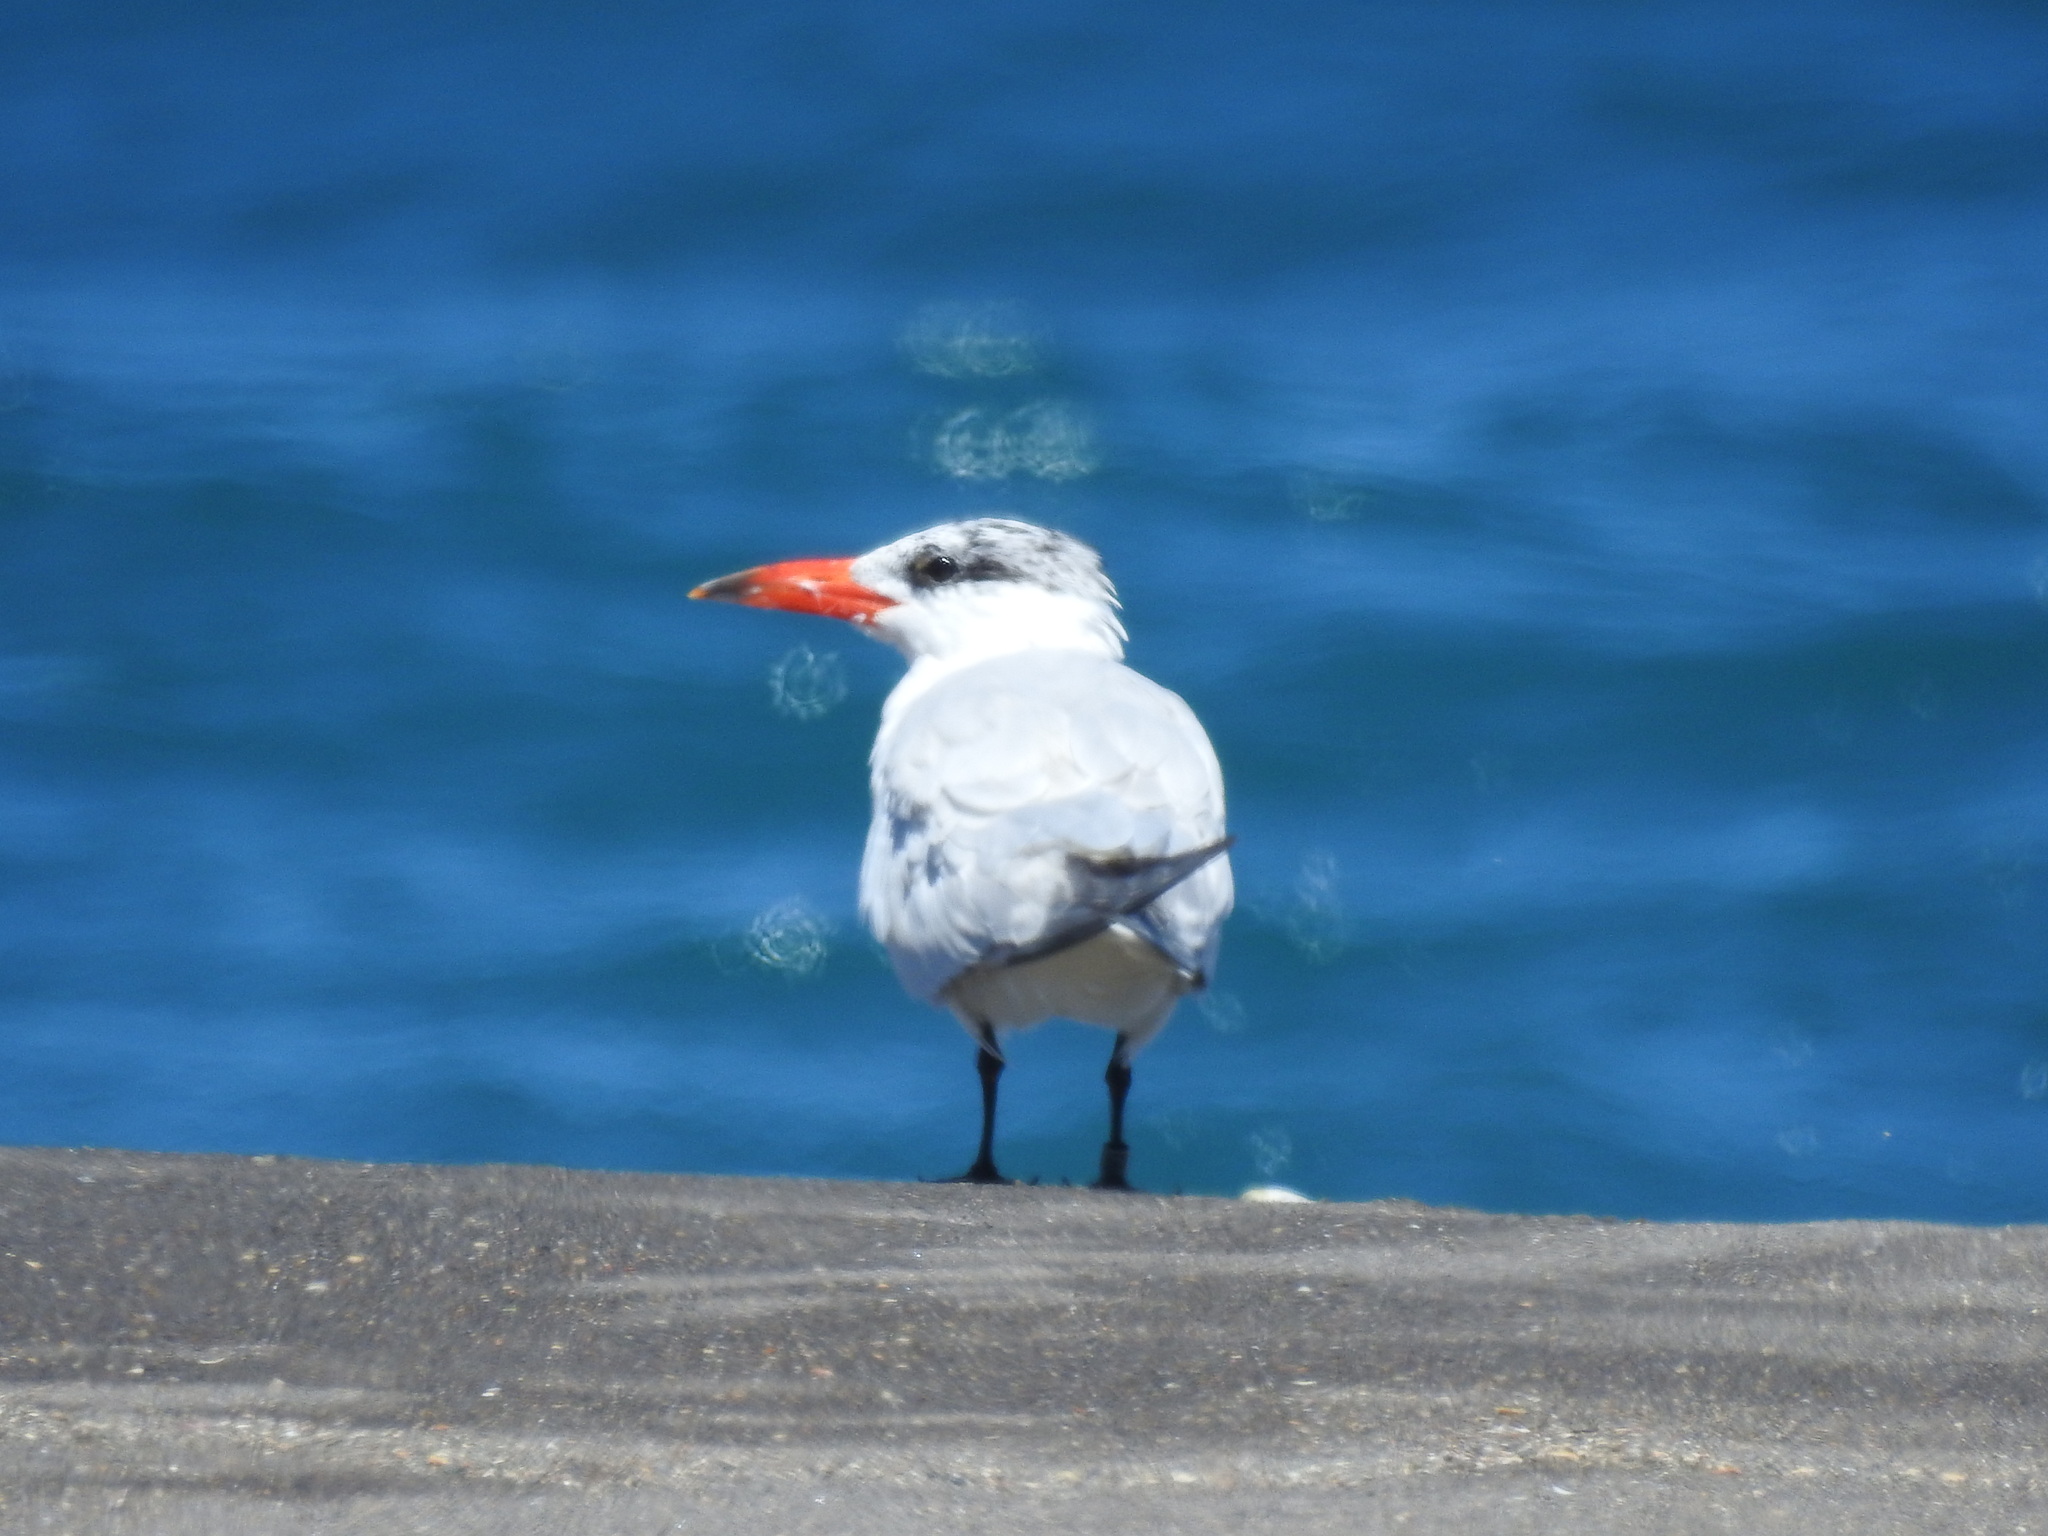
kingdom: Animalia
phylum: Chordata
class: Aves
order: Charadriiformes
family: Laridae
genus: Hydroprogne
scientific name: Hydroprogne caspia
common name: Caspian tern
